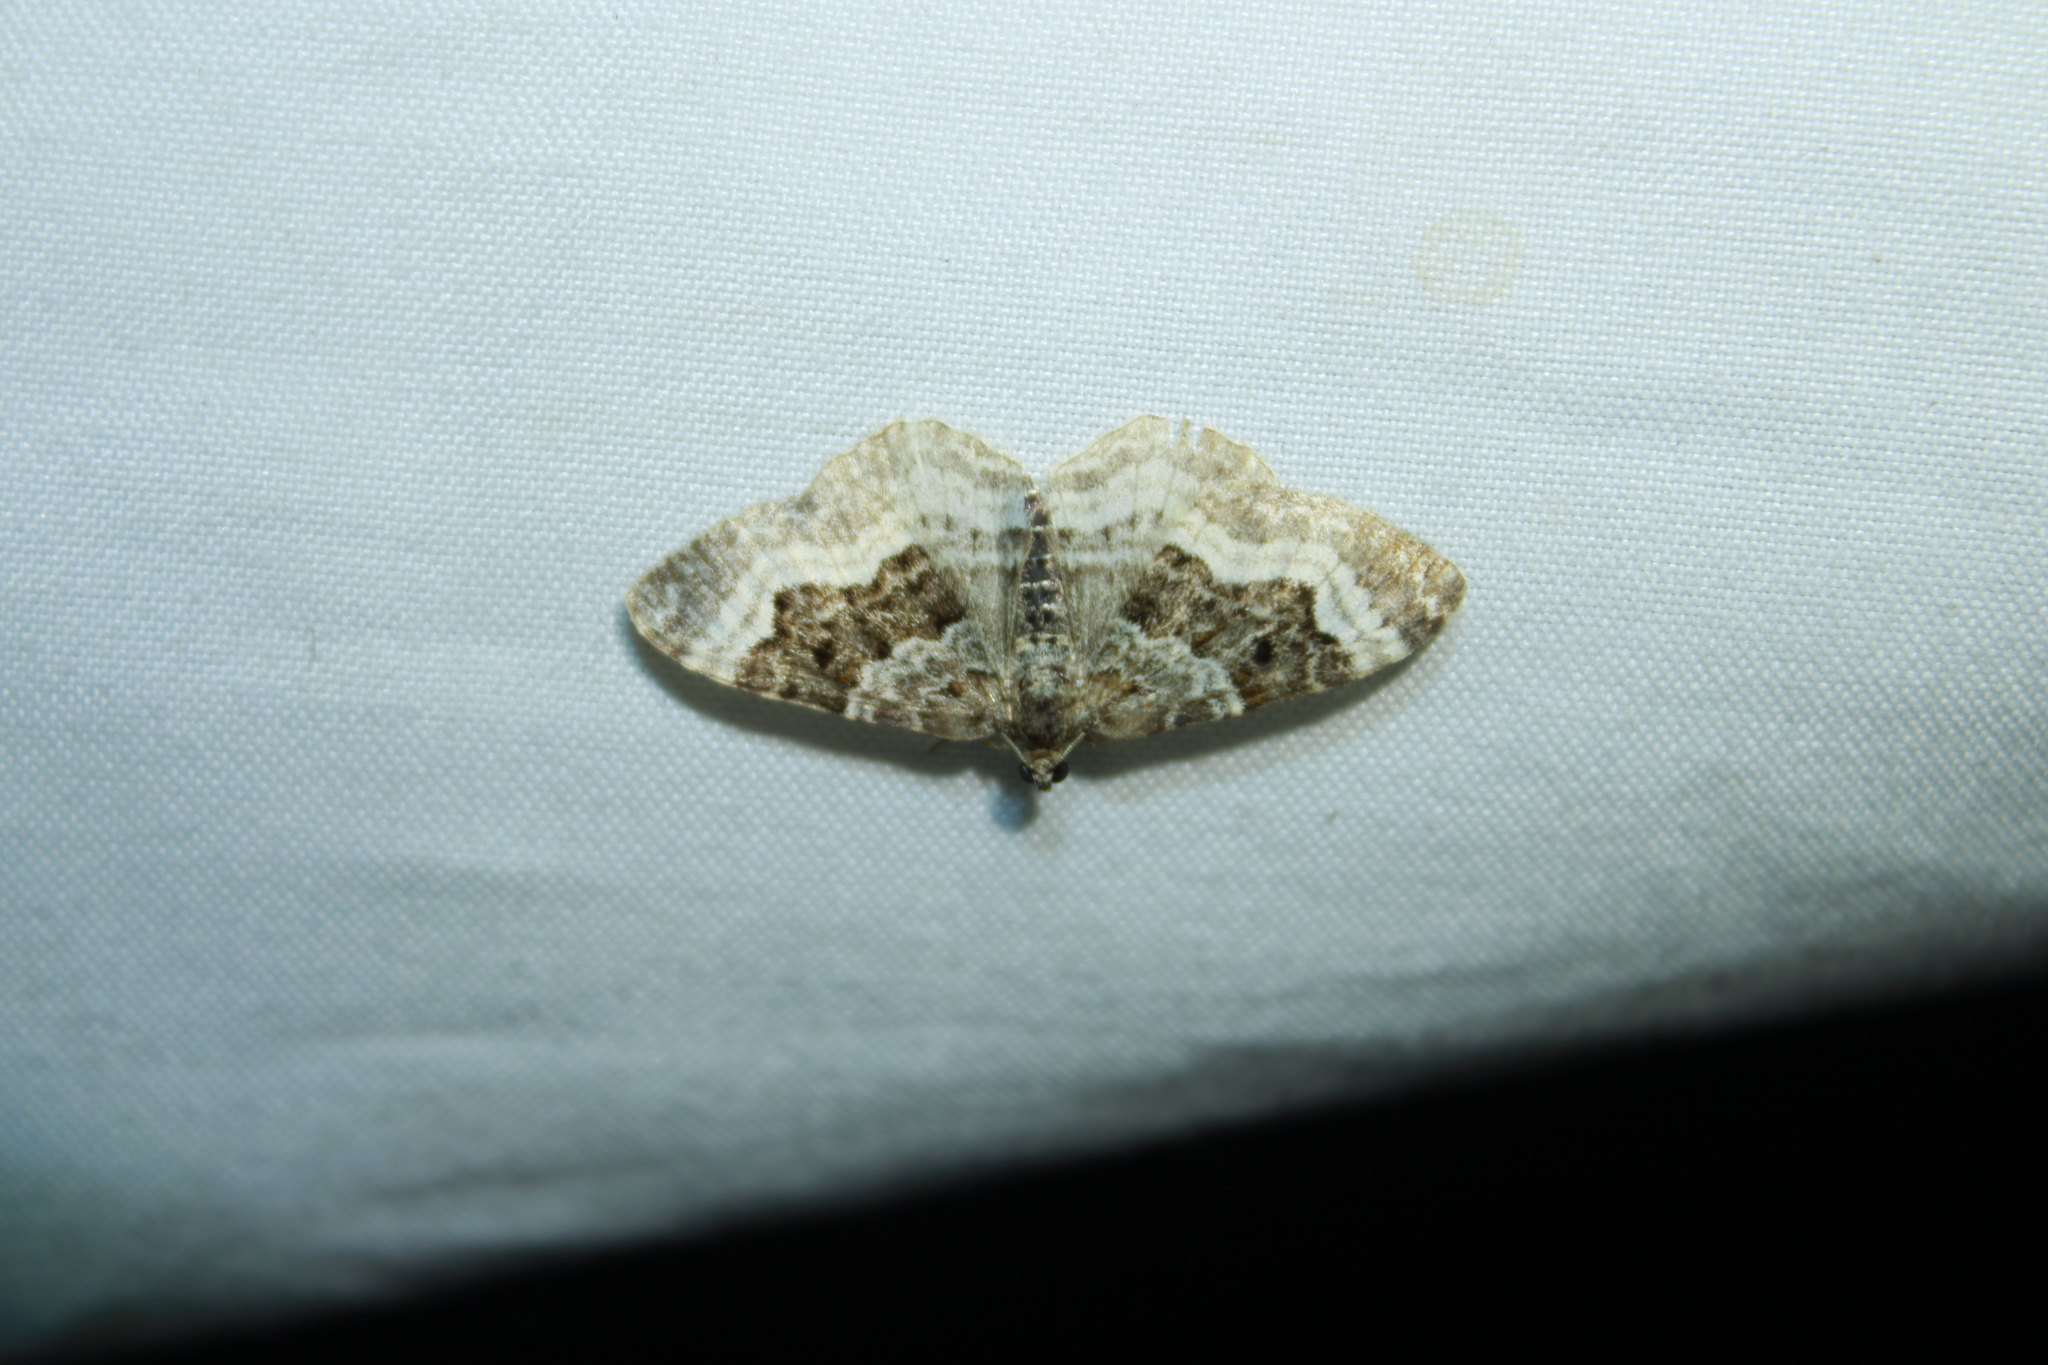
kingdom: Animalia
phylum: Arthropoda
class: Insecta
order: Lepidoptera
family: Geometridae
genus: Epirrhoe
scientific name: Epirrhoe alternata
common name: Common carpet
